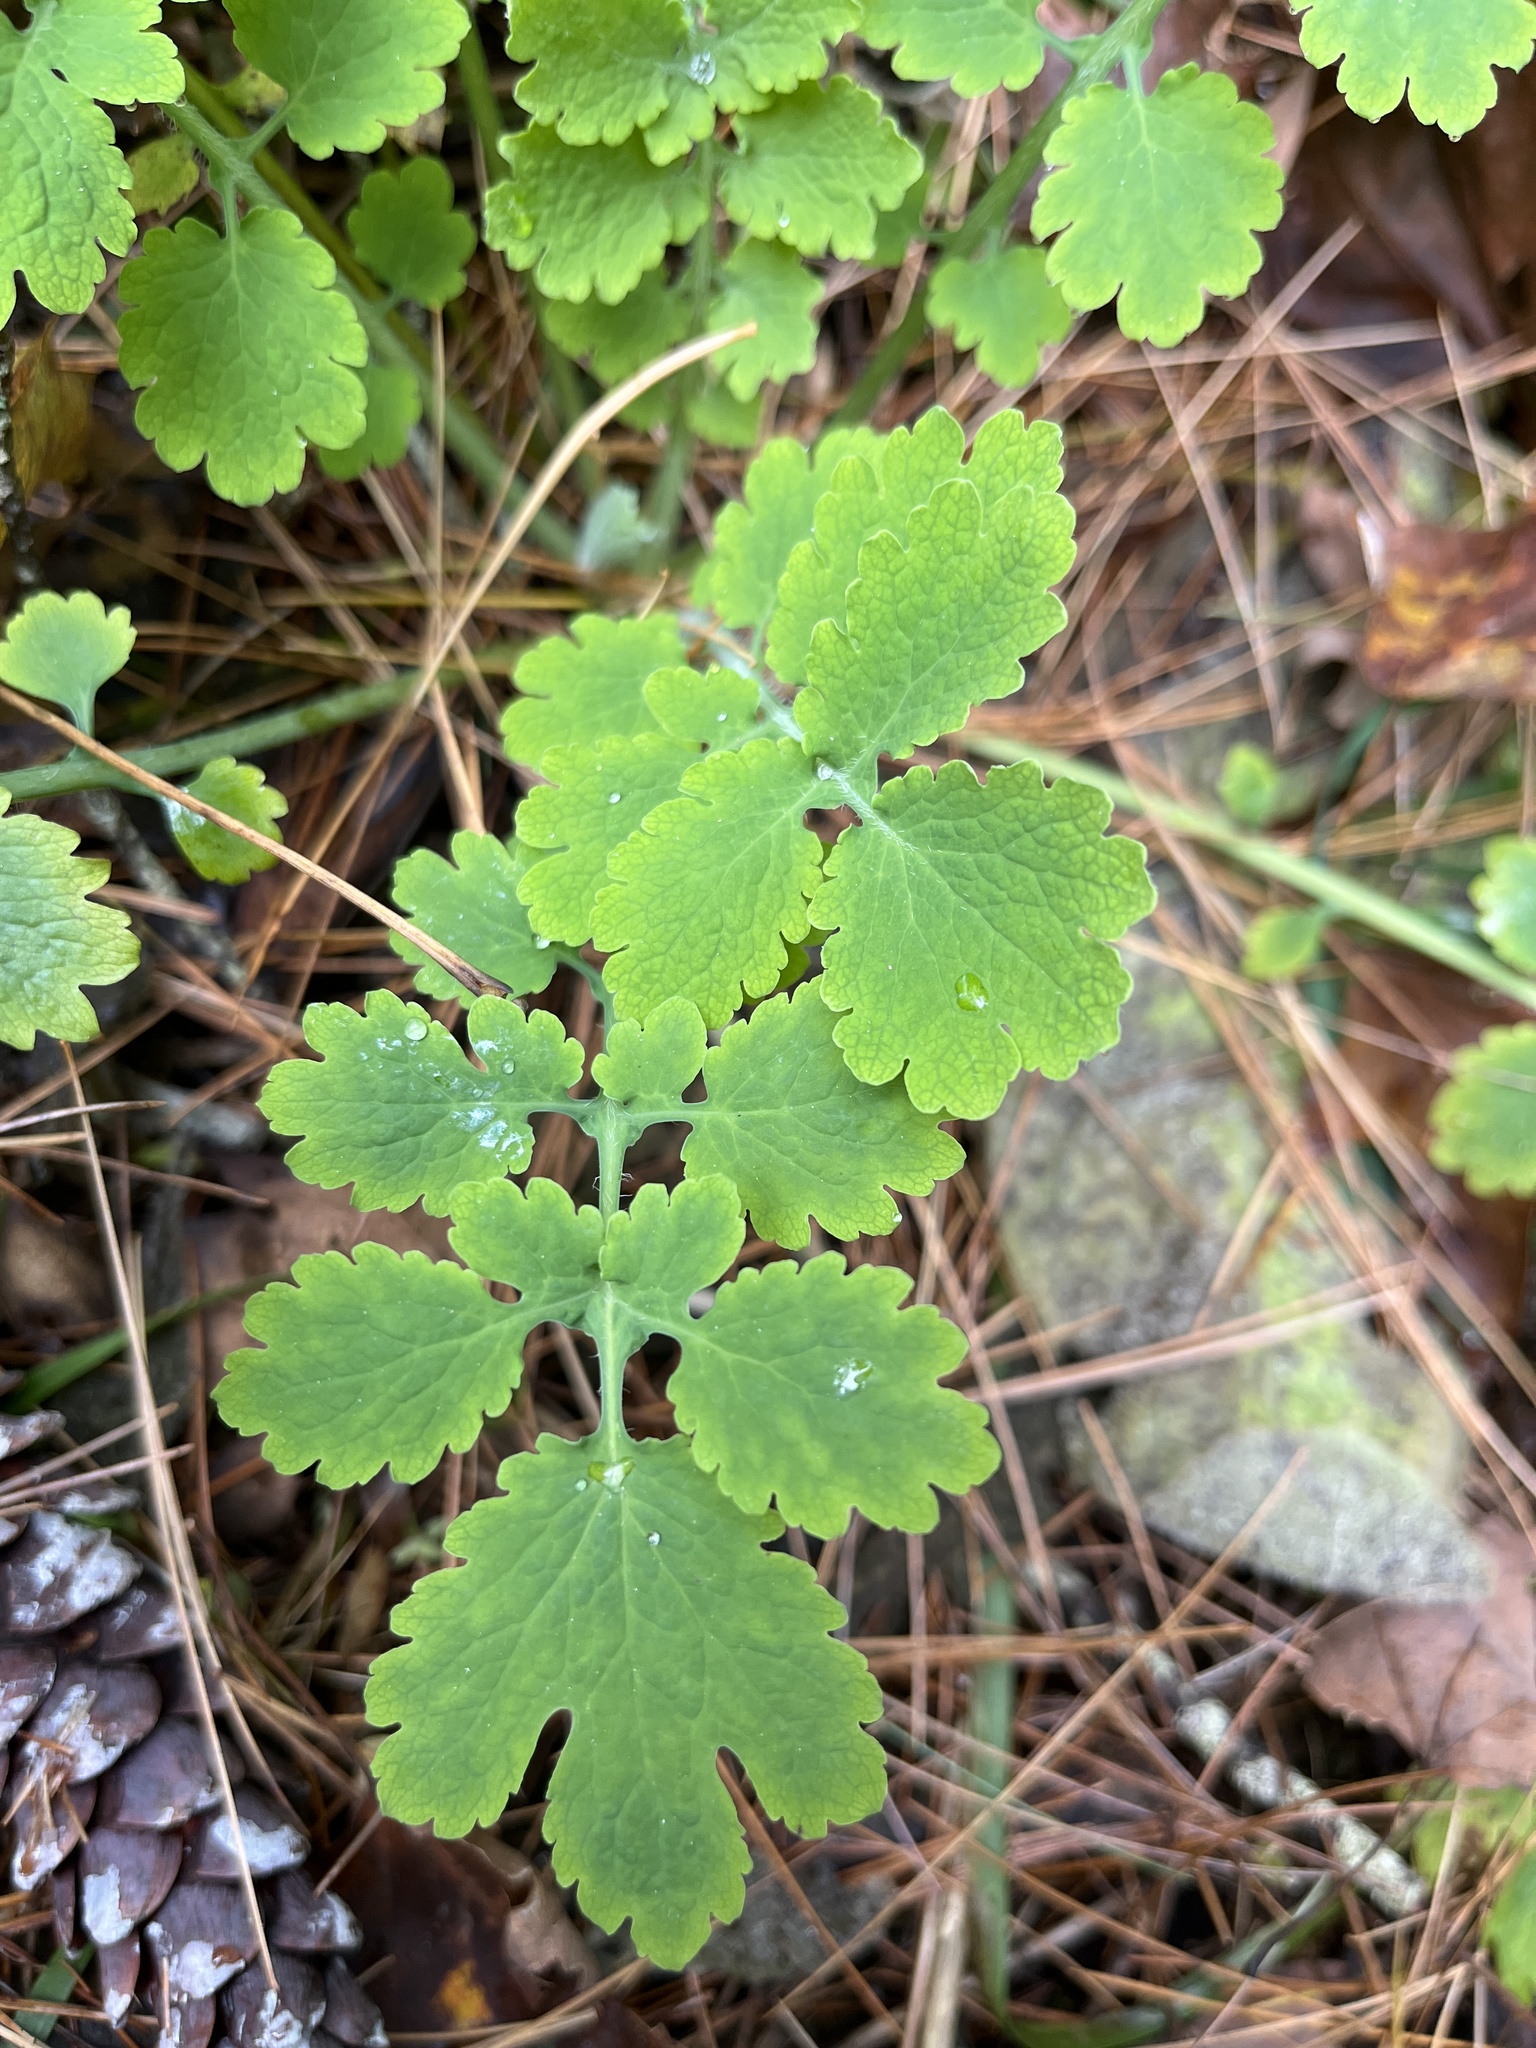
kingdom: Plantae
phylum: Tracheophyta
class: Magnoliopsida
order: Ranunculales
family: Papaveraceae
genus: Chelidonium
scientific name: Chelidonium majus
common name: Greater celandine
